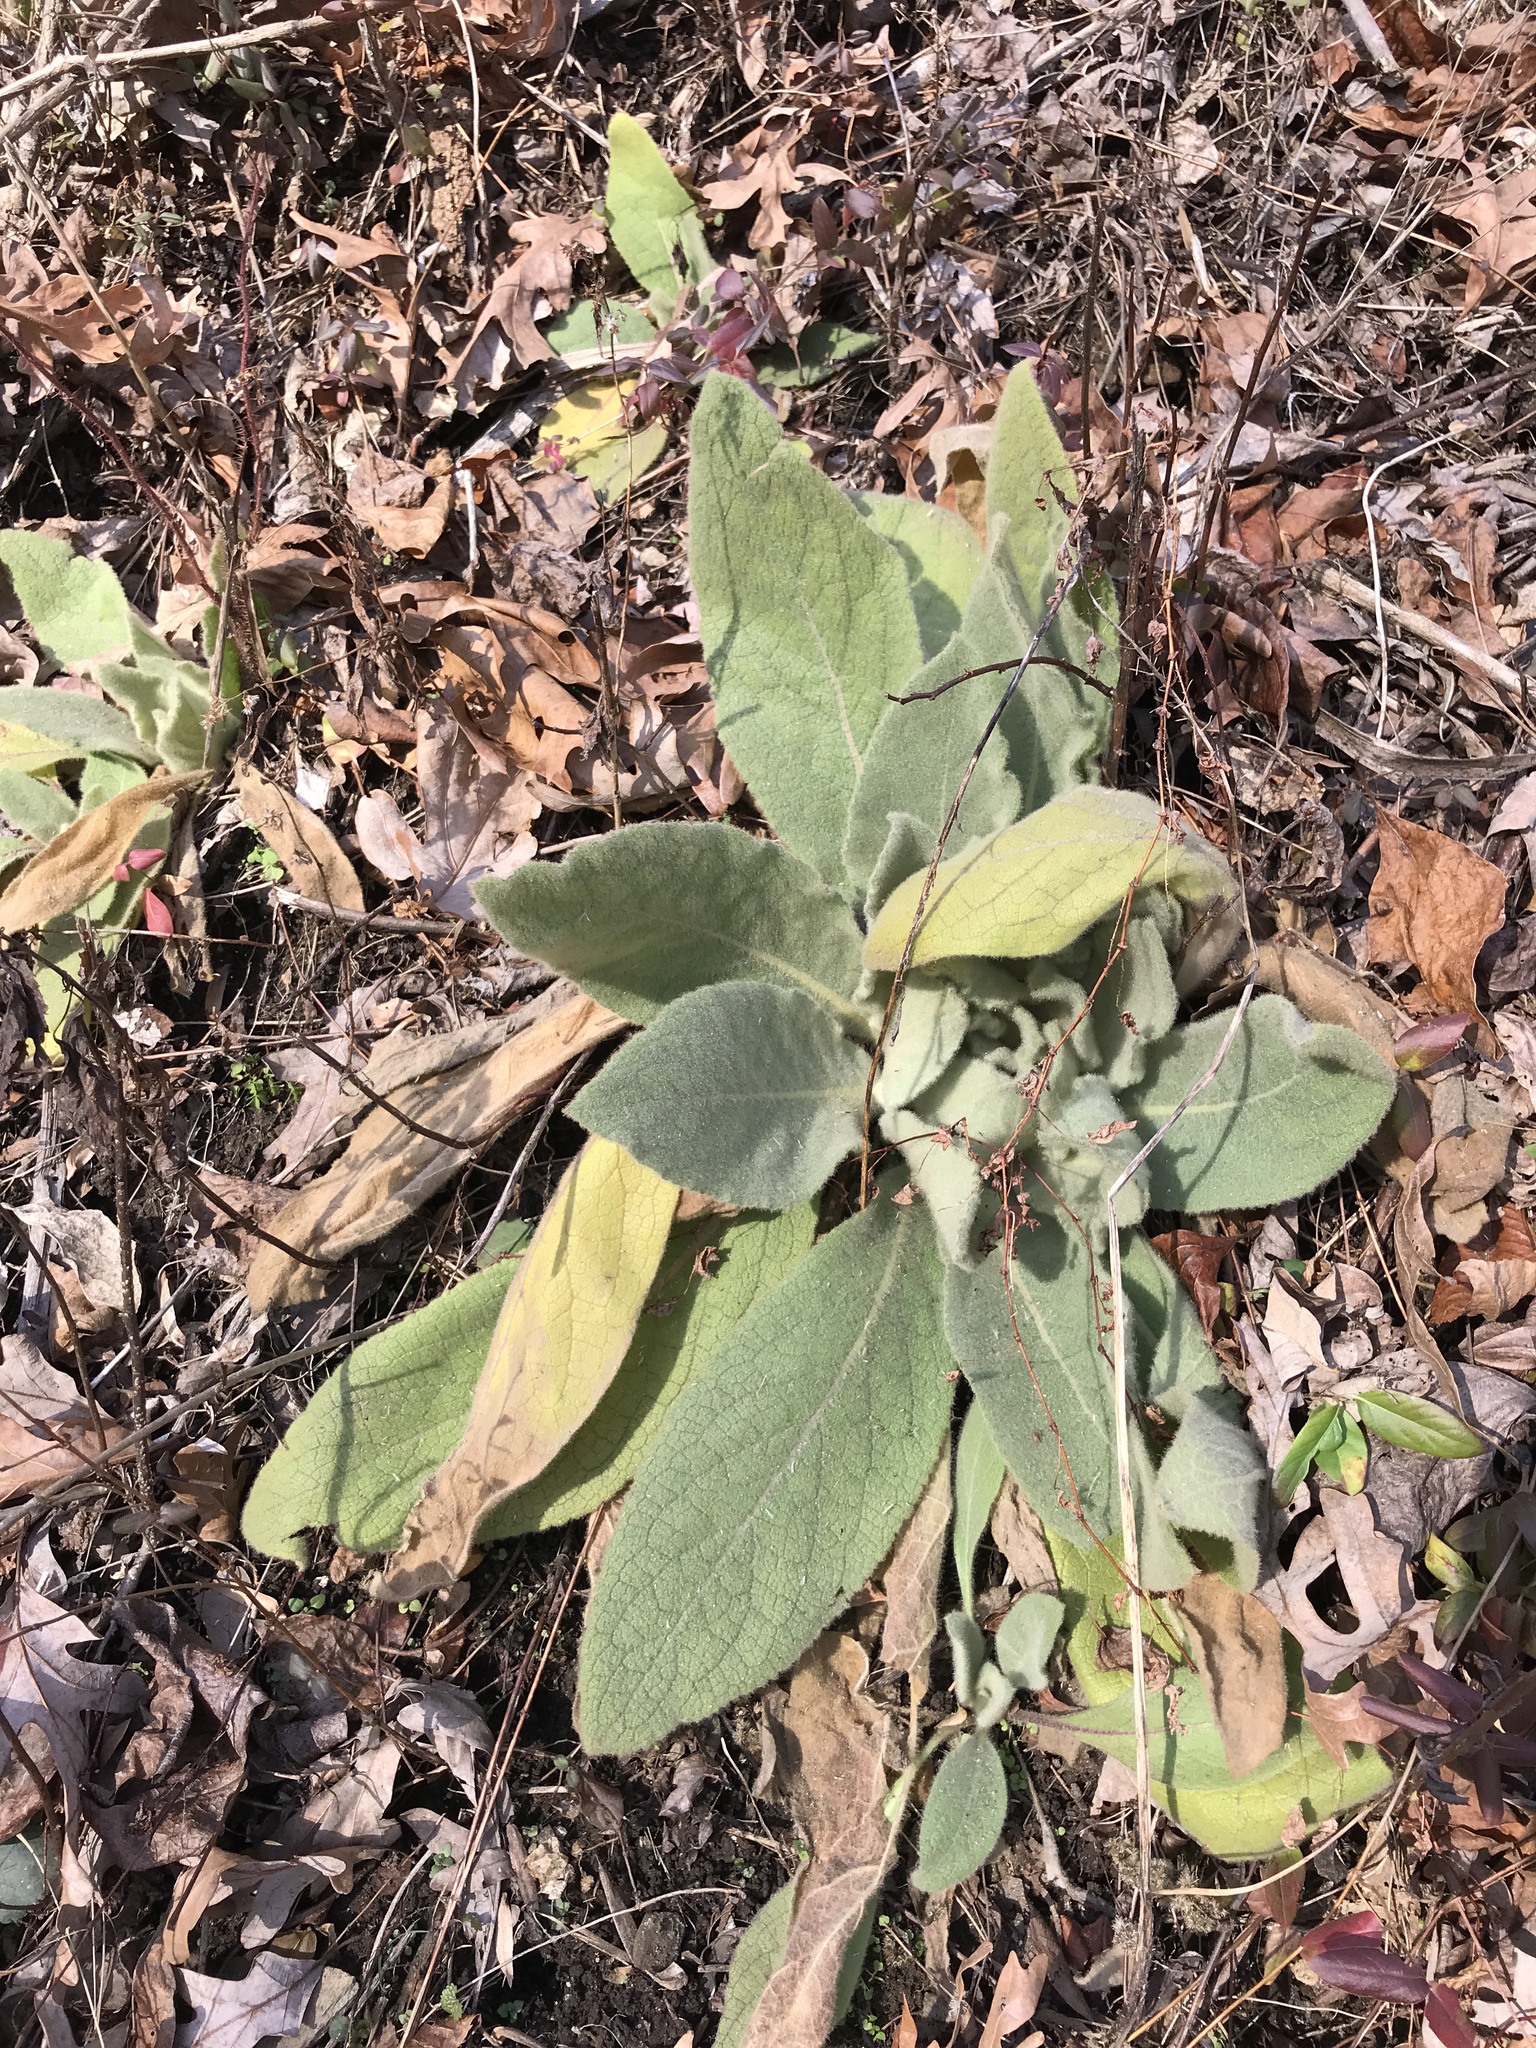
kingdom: Plantae
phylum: Tracheophyta
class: Magnoliopsida
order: Lamiales
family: Scrophulariaceae
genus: Verbascum
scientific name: Verbascum thapsus
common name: Common mullein
